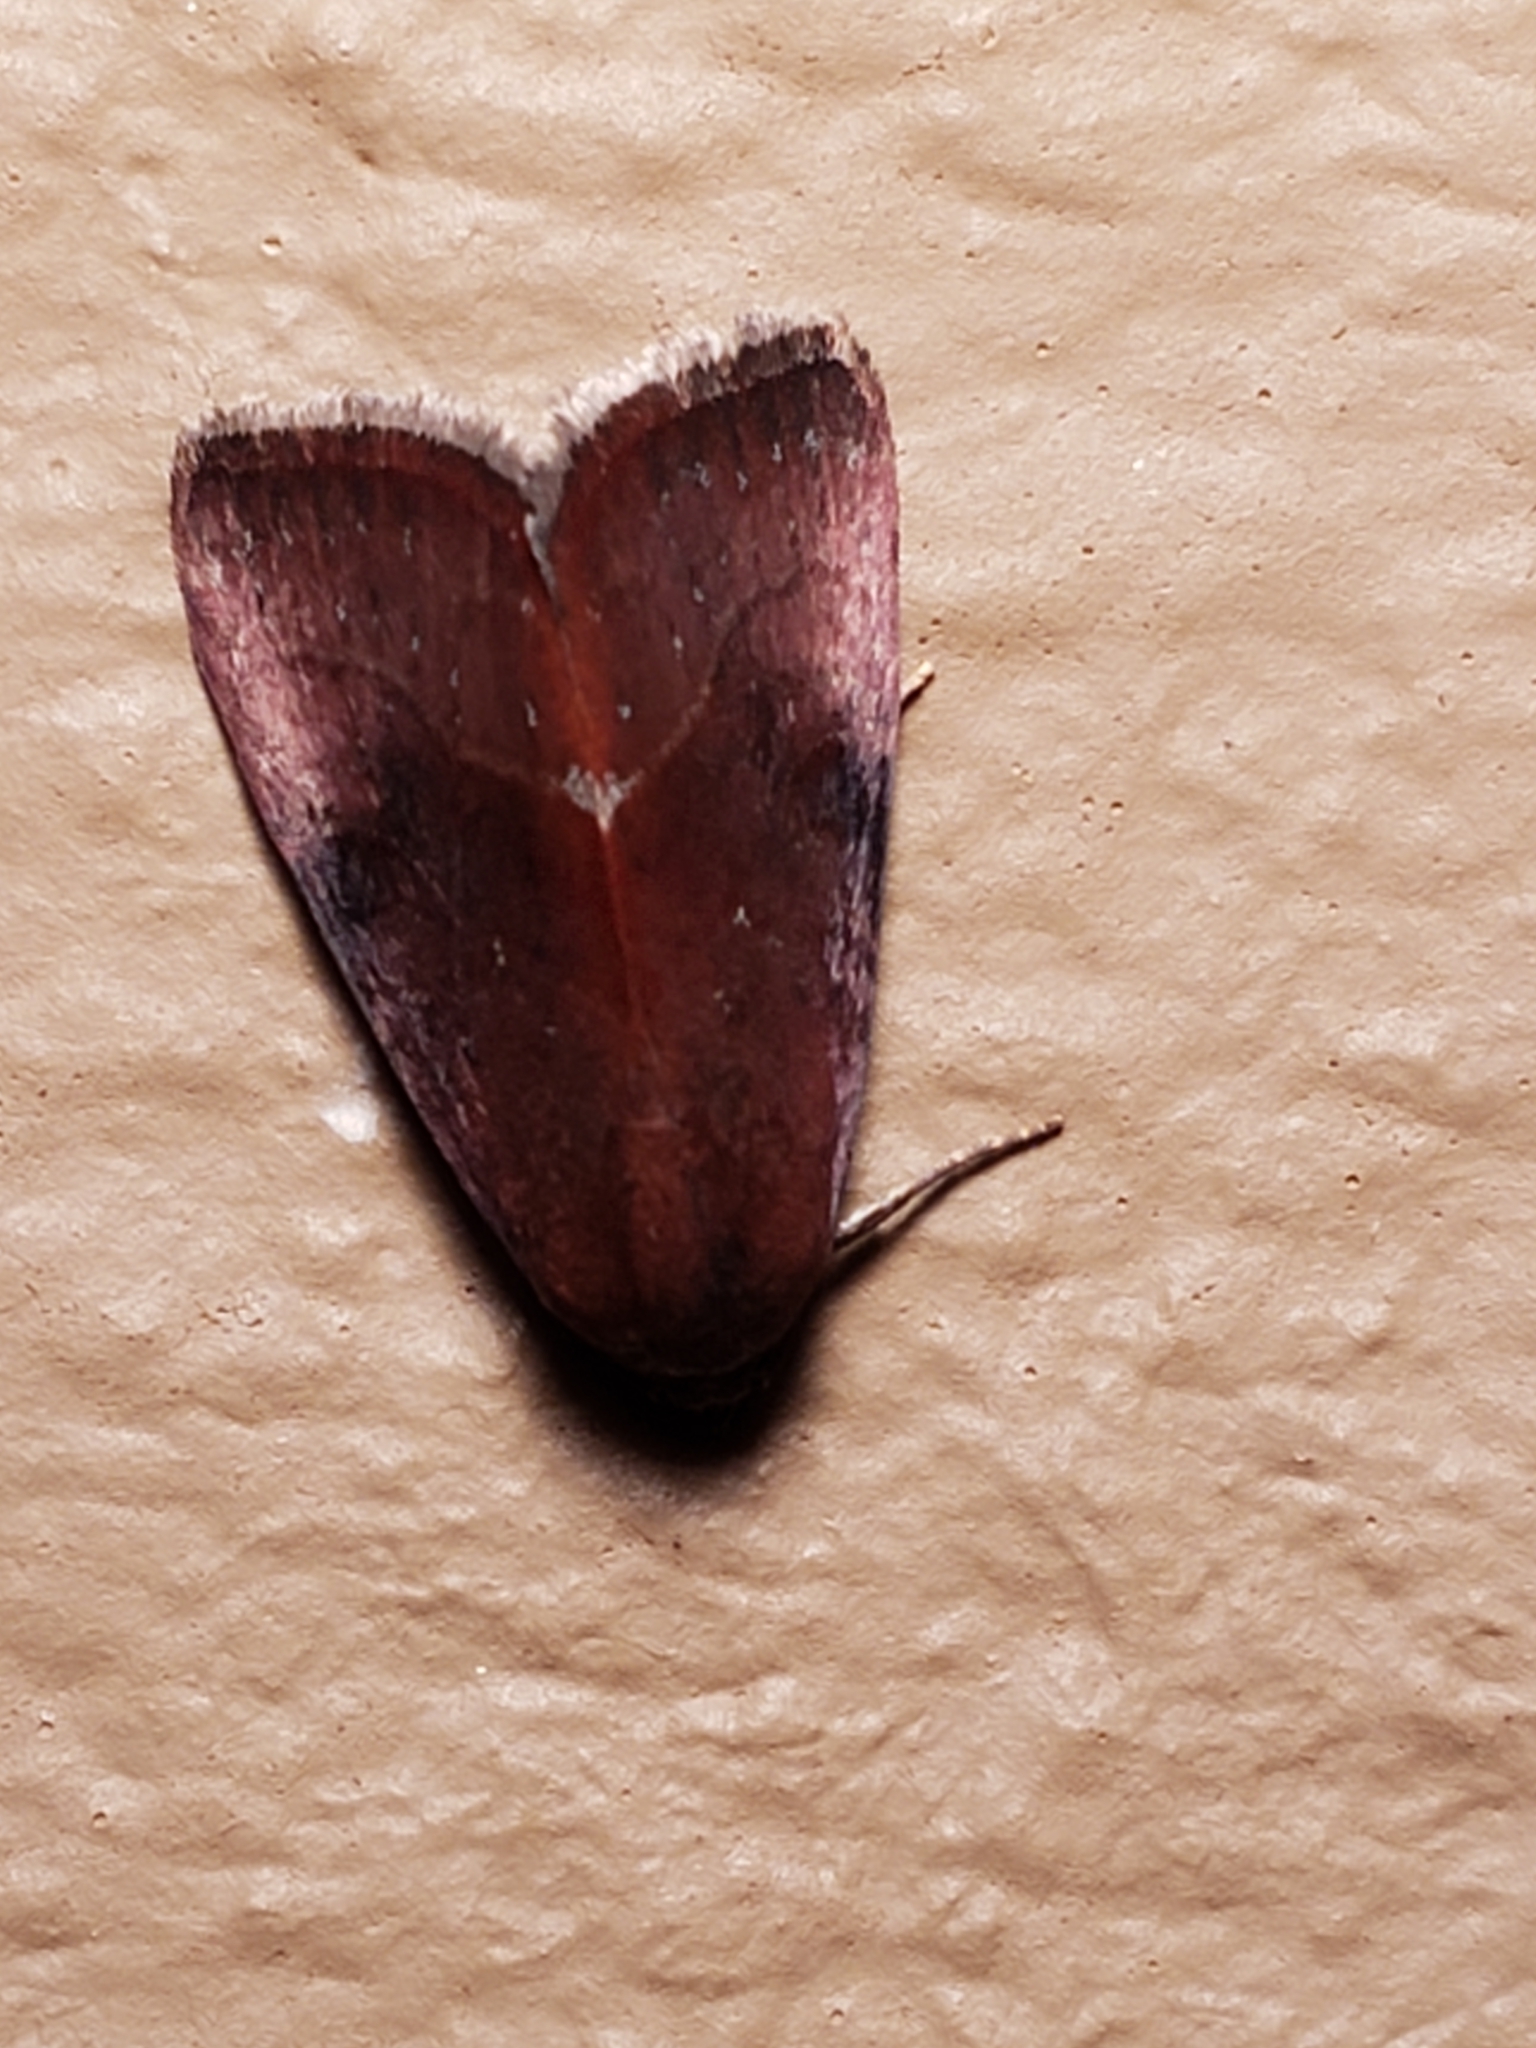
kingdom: Animalia
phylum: Arthropoda
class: Insecta
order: Lepidoptera
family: Noctuidae
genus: Galgula
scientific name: Galgula partita
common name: Wedgeling
